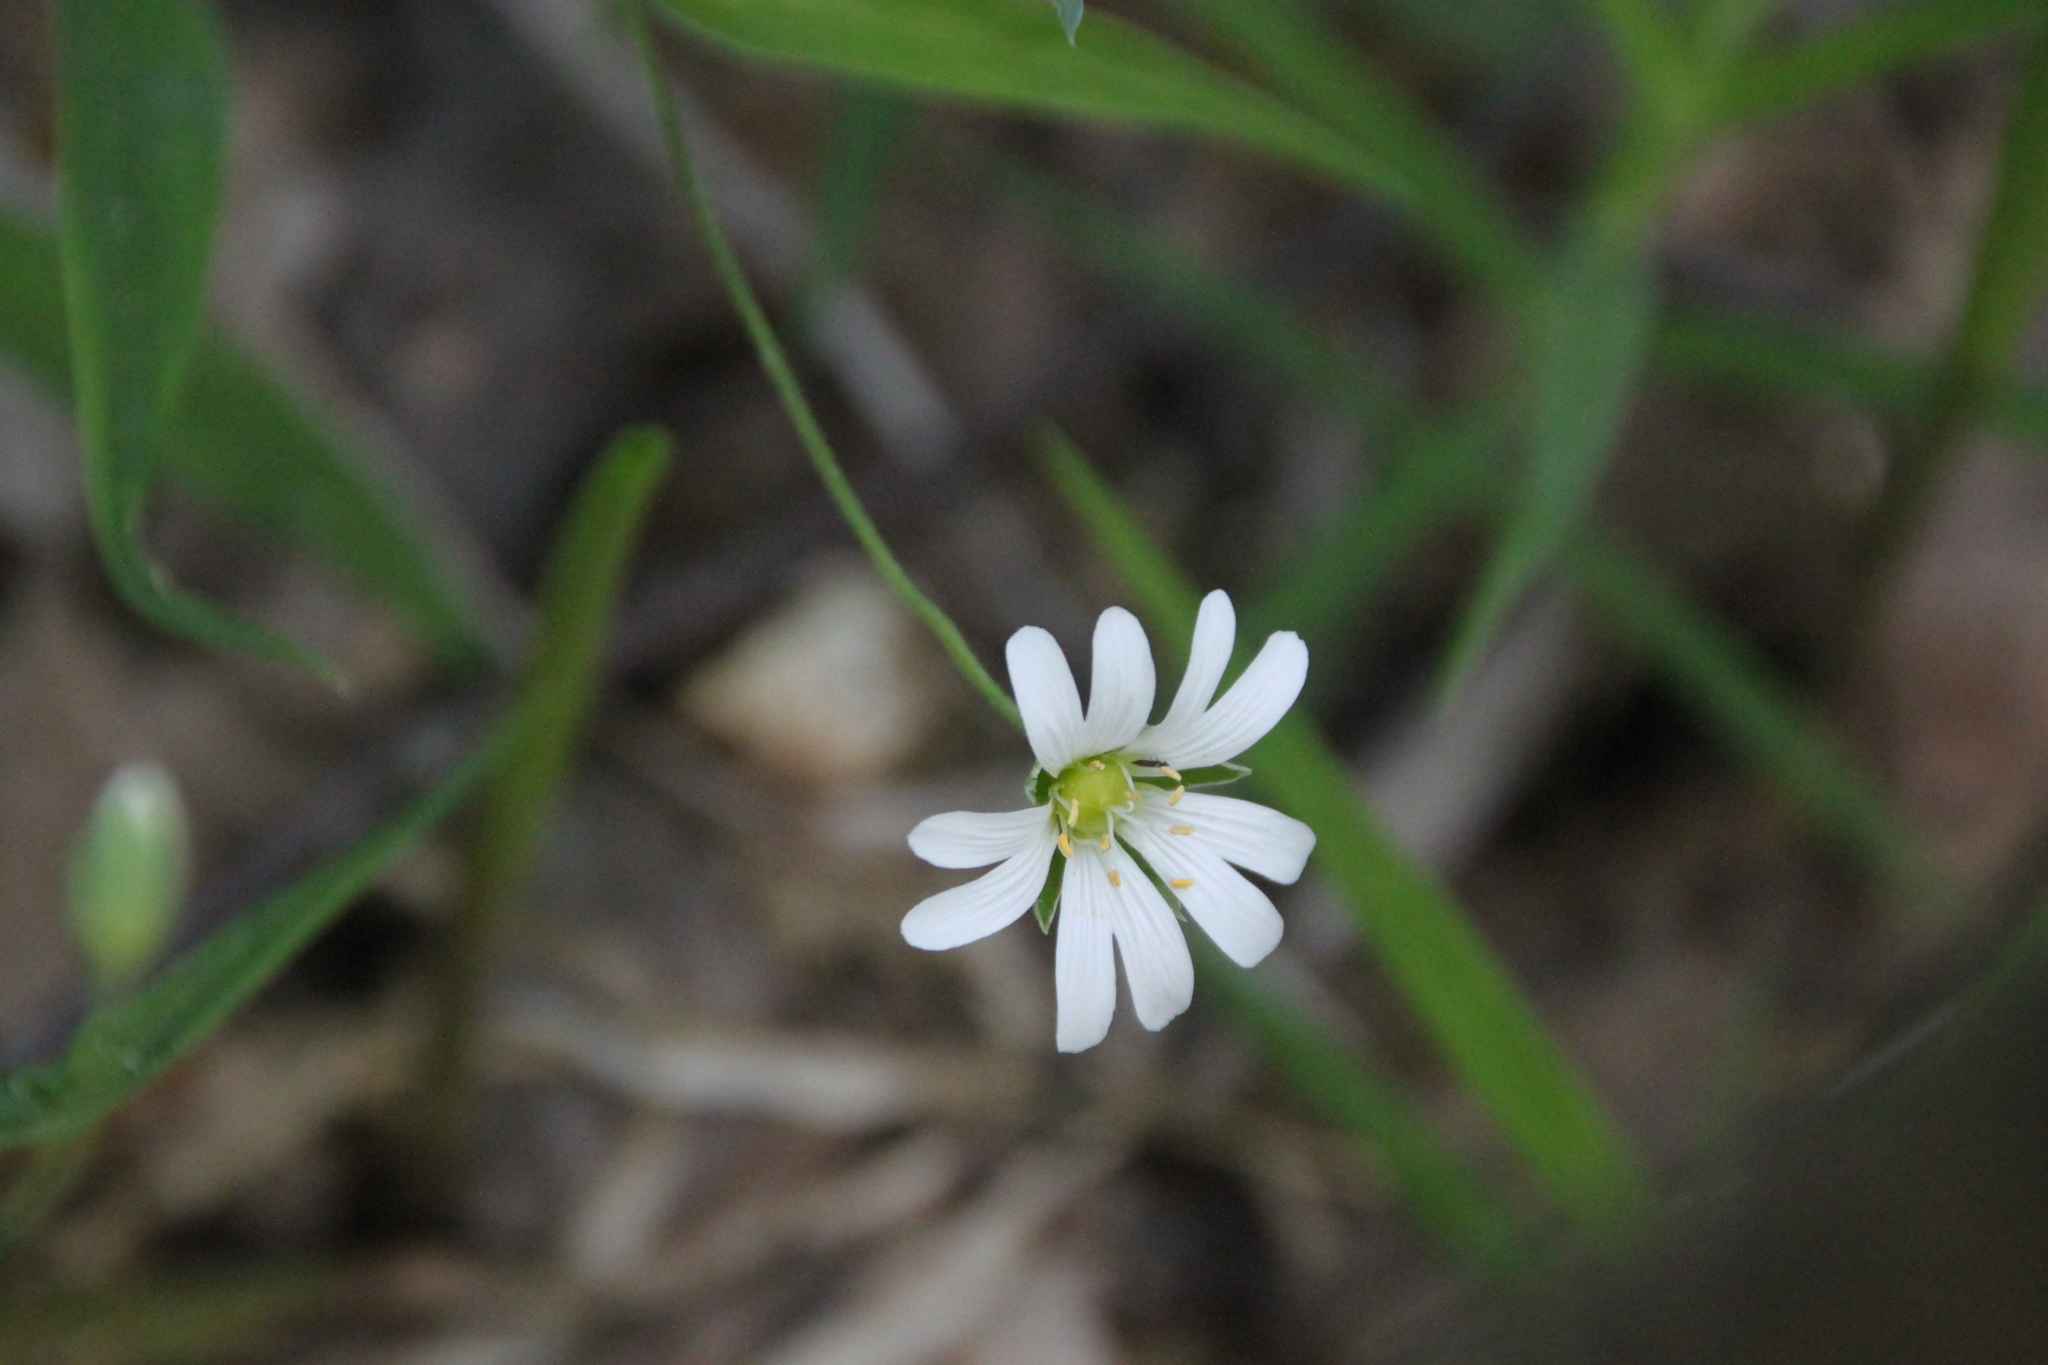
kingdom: Plantae
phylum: Tracheophyta
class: Magnoliopsida
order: Caryophyllales
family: Caryophyllaceae
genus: Rabelera
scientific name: Rabelera holostea
